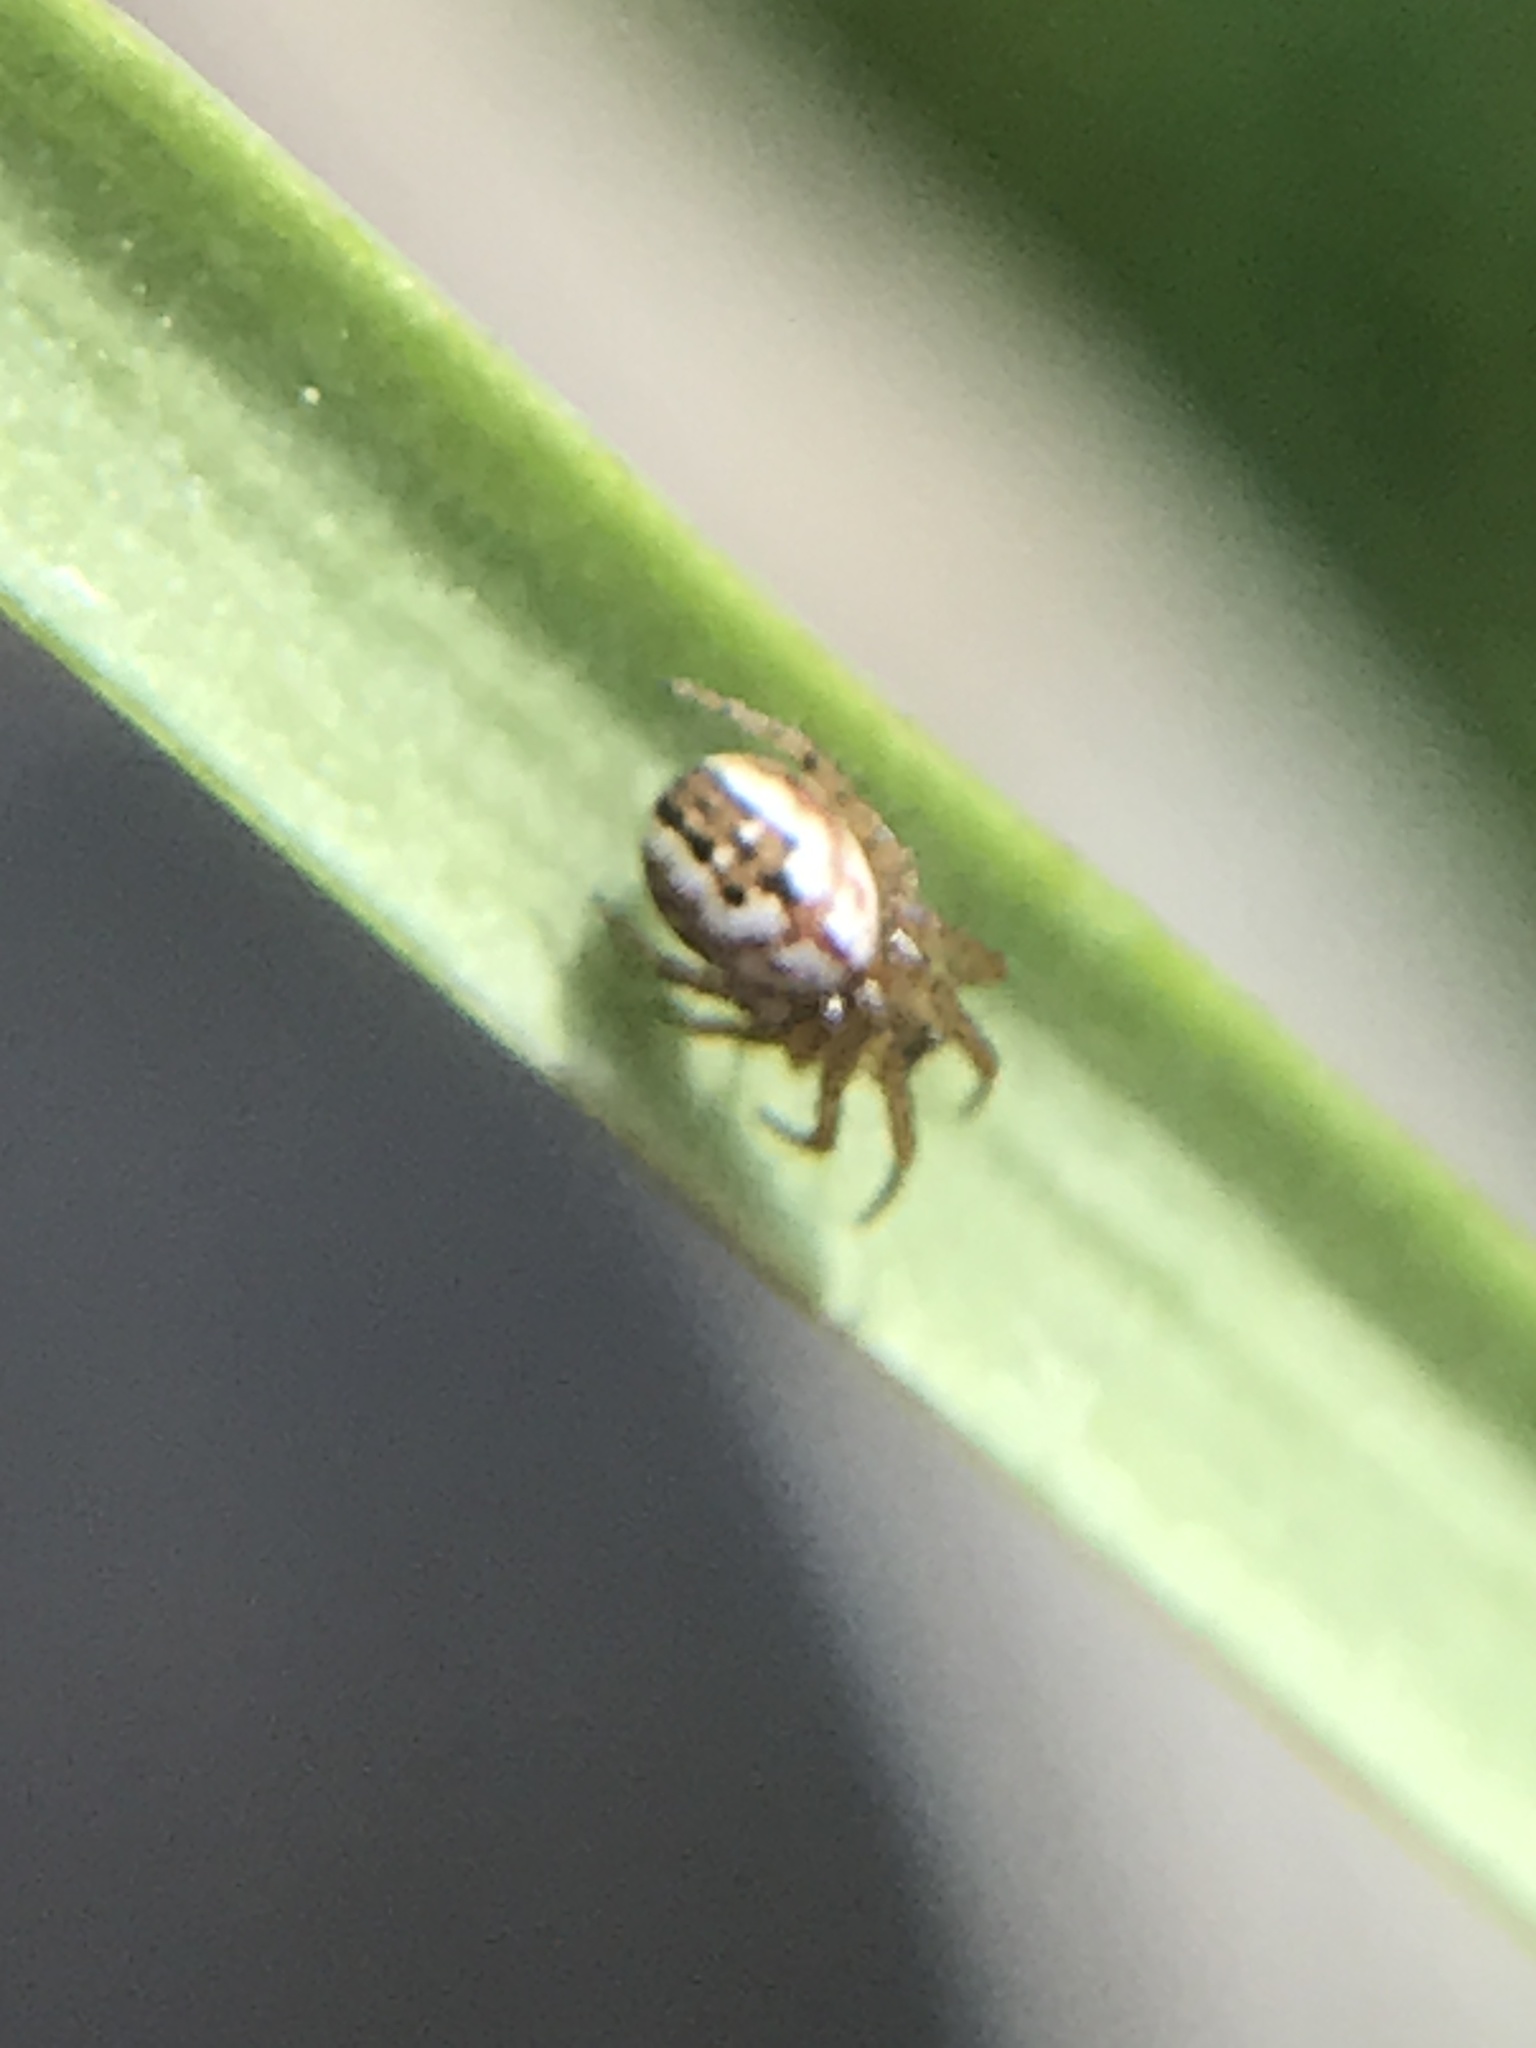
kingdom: Animalia
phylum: Arthropoda
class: Arachnida
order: Araneae
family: Araneidae
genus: Mangora
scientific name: Mangora acalypha
